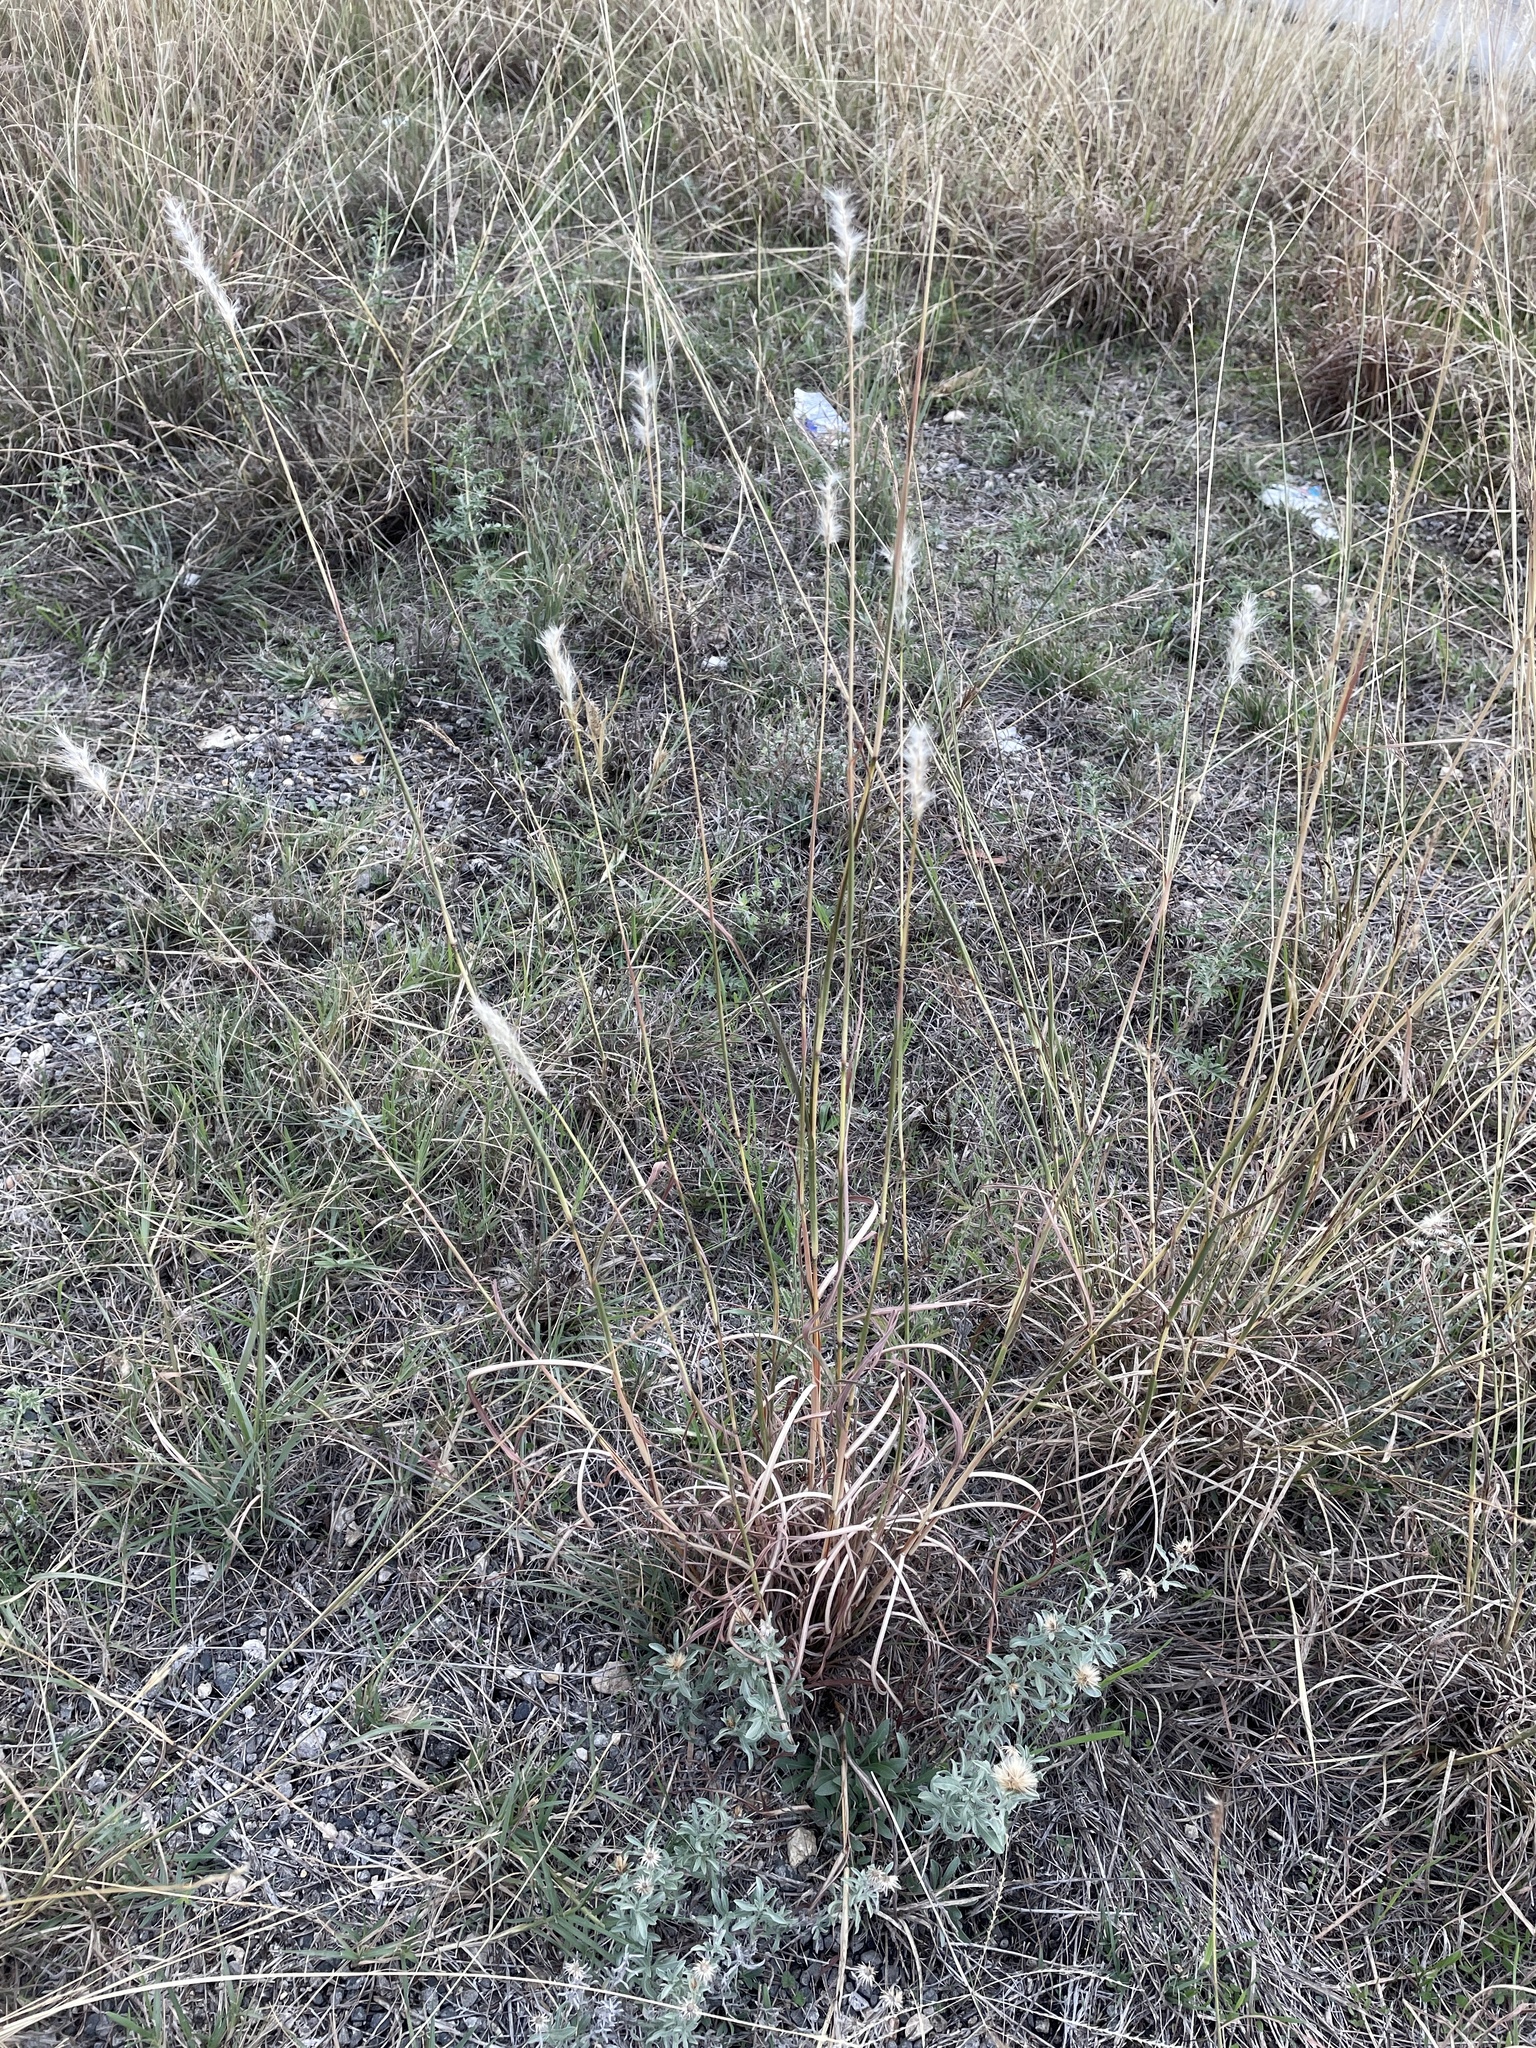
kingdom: Plantae
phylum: Tracheophyta
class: Liliopsida
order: Poales
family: Poaceae
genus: Bothriochloa
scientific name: Bothriochloa torreyana
